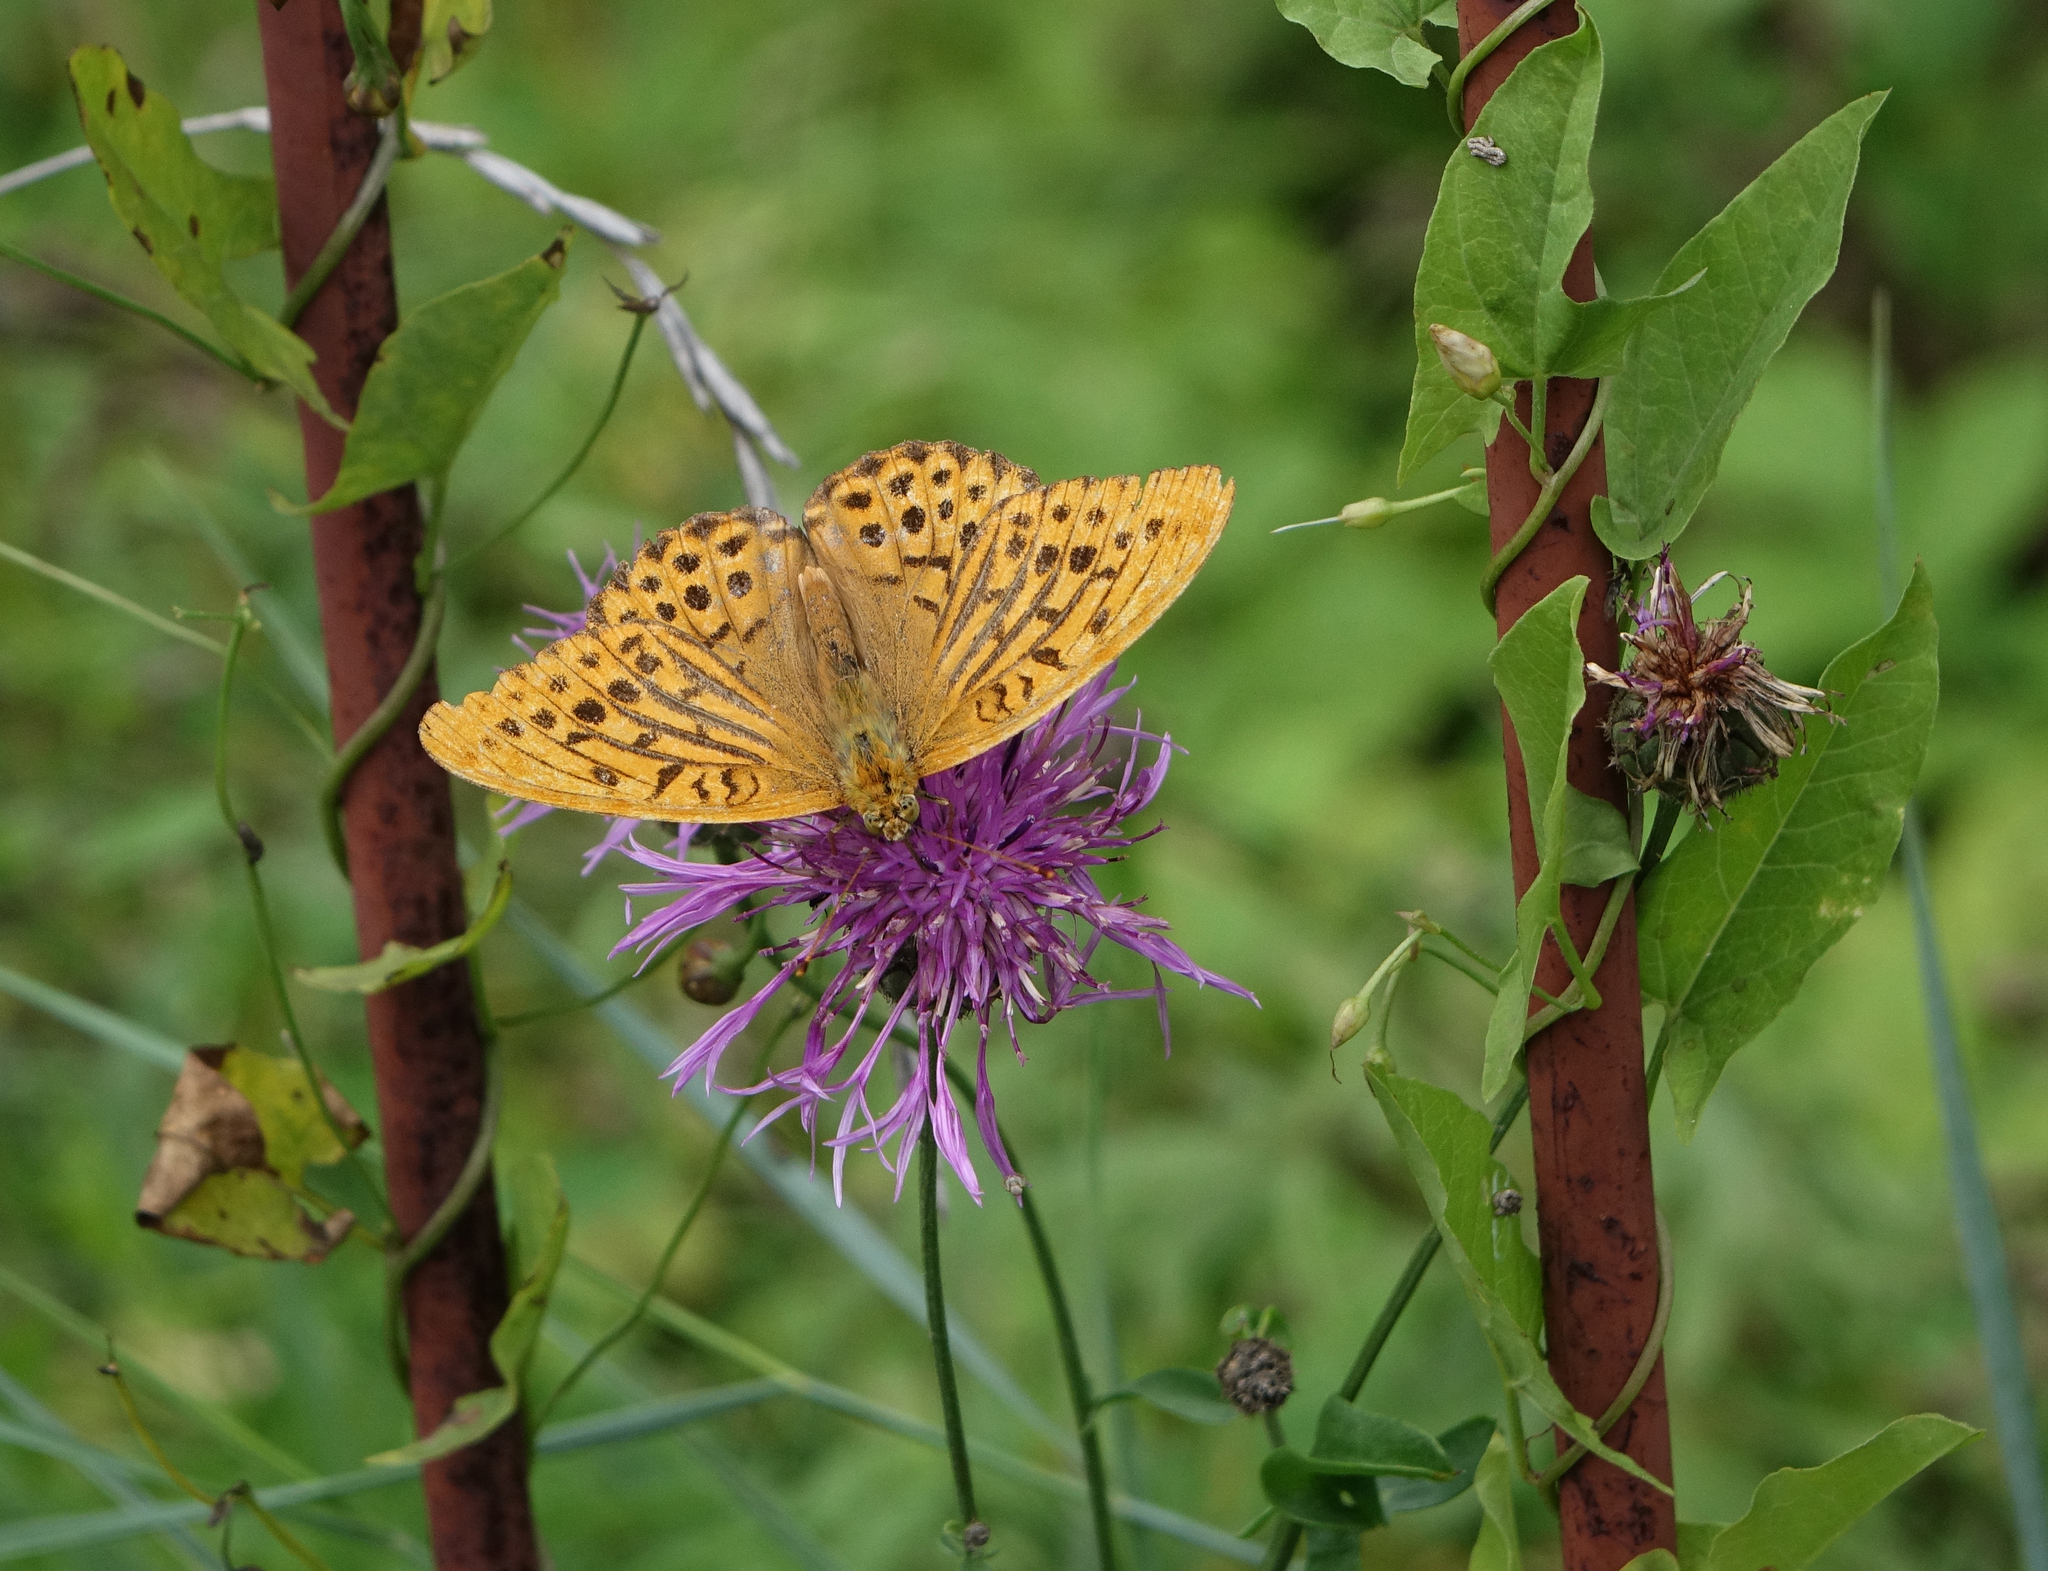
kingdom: Animalia
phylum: Arthropoda
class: Insecta
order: Lepidoptera
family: Nymphalidae
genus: Argynnis
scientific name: Argynnis paphia
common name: Silver-washed fritillary
